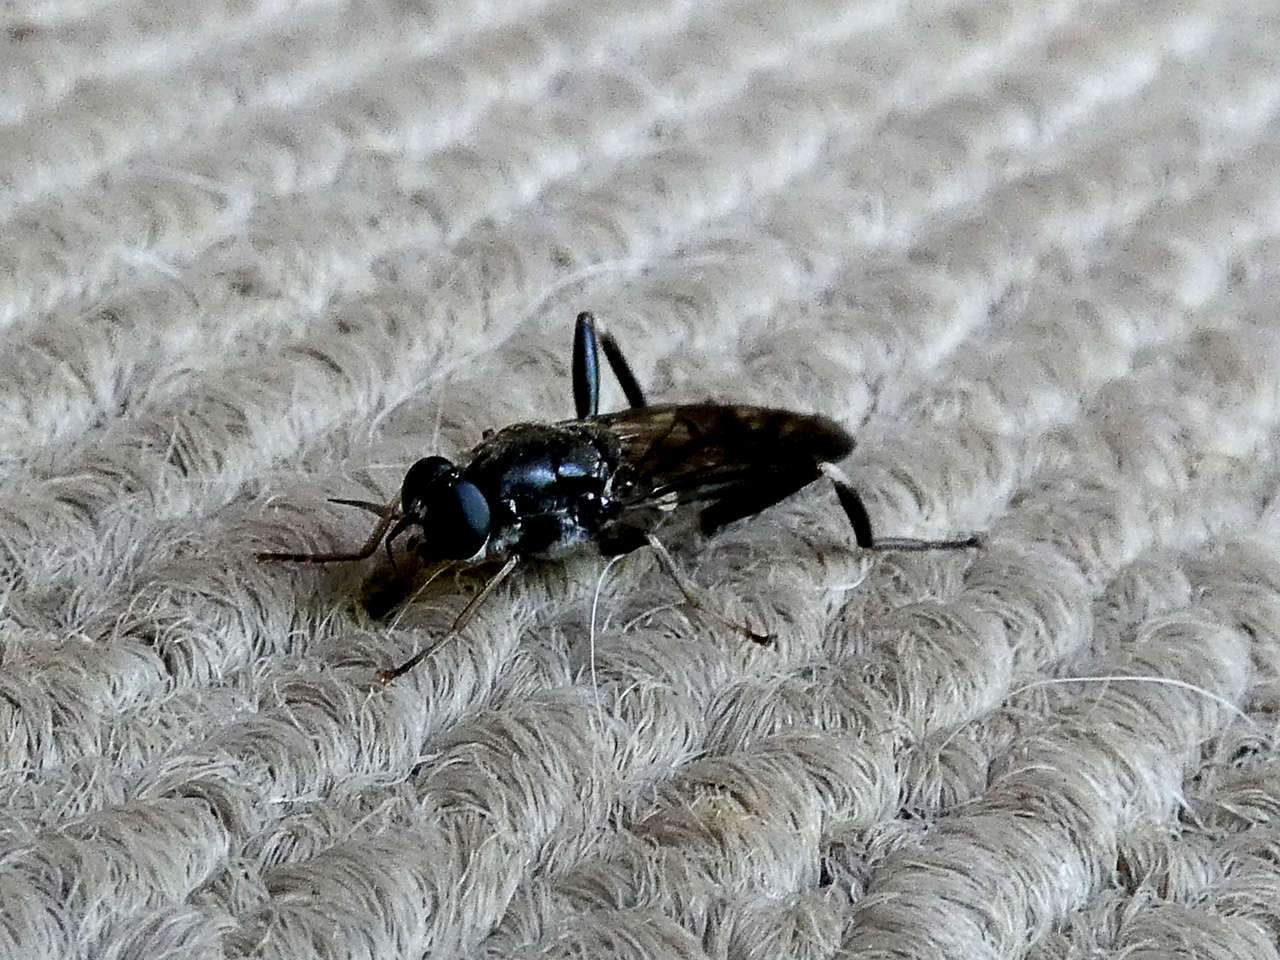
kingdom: Animalia
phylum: Arthropoda
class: Insecta
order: Diptera
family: Stratiomyidae
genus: Exaireta
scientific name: Exaireta spinigera
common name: Blue soldier fly
